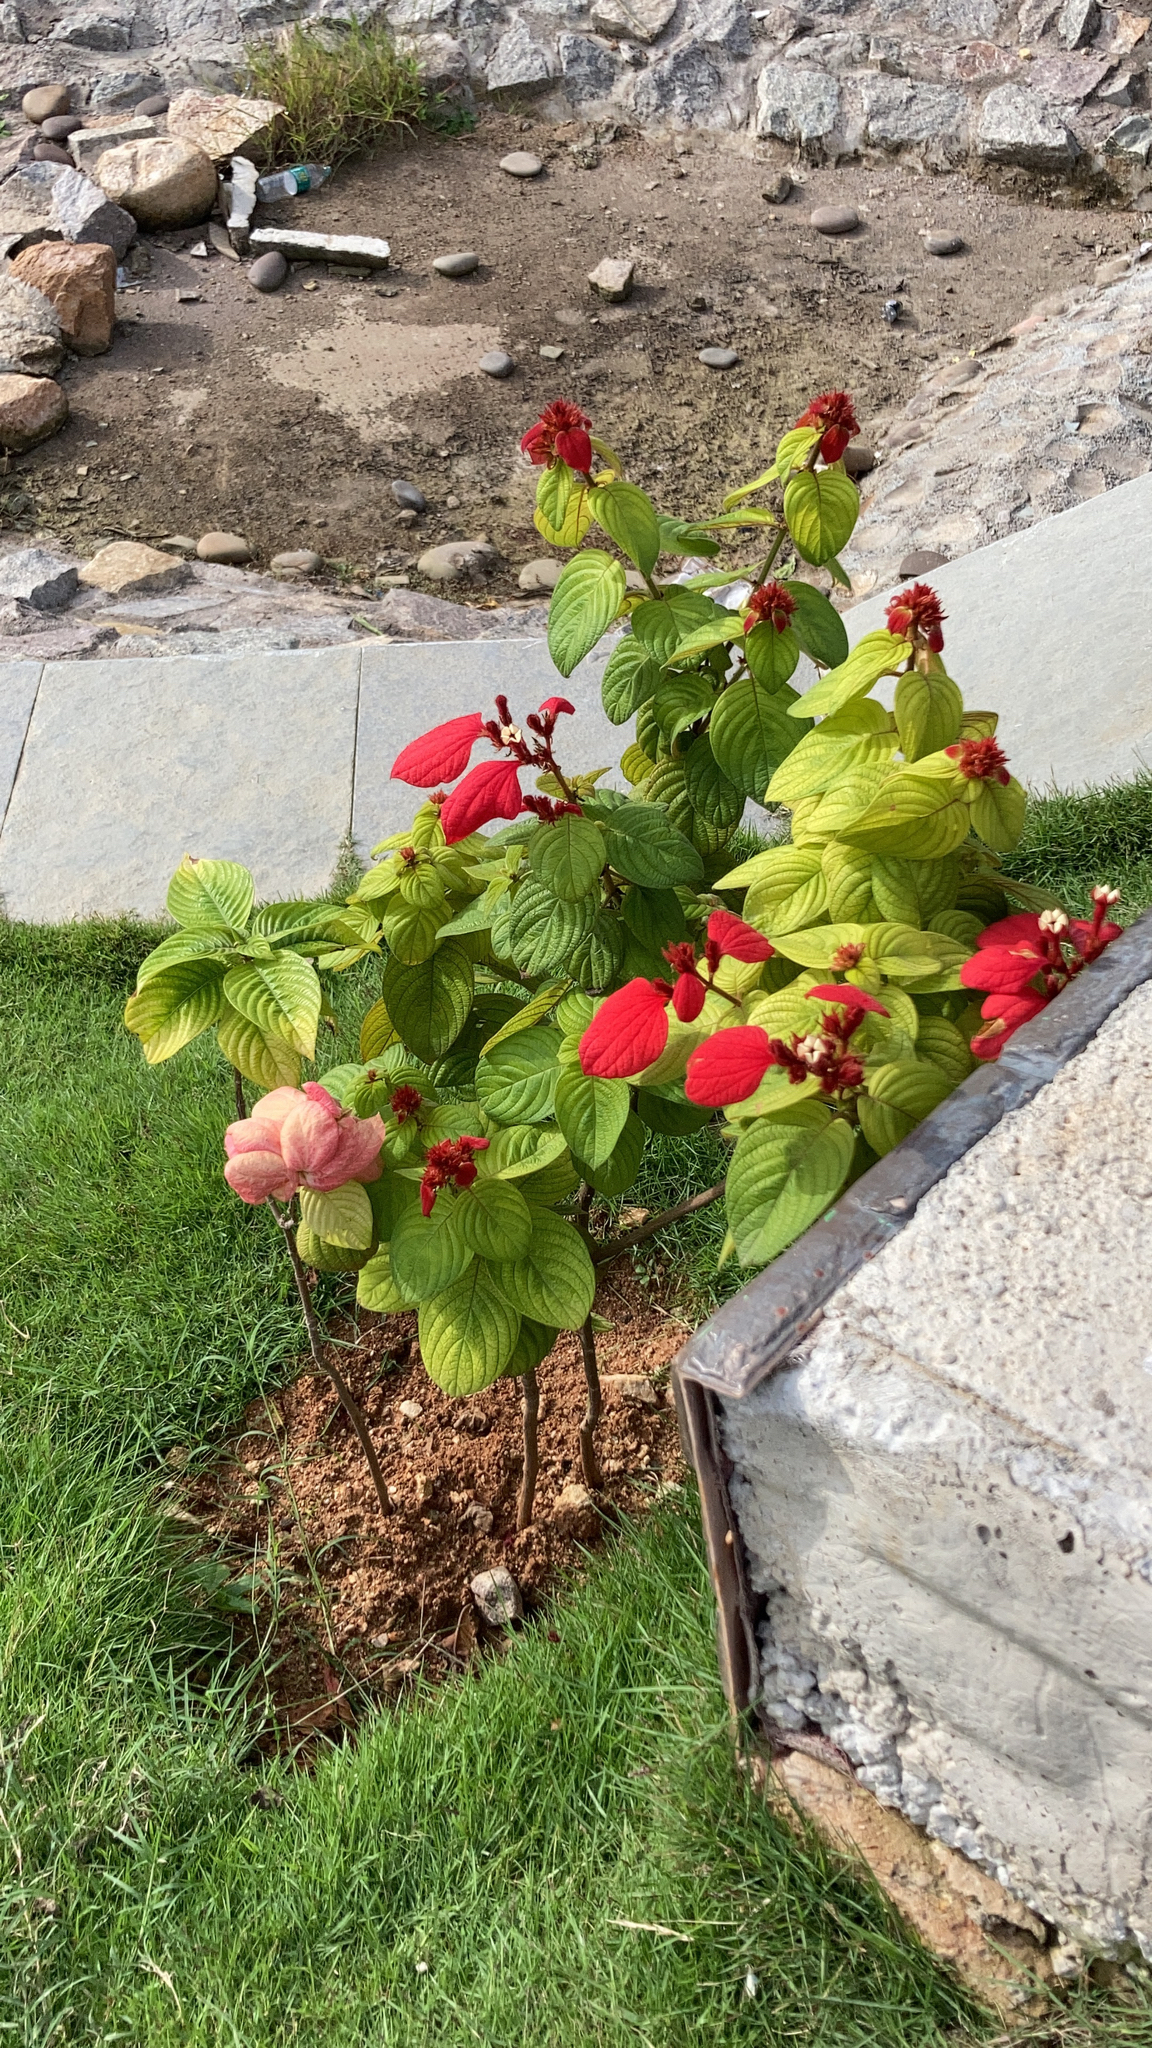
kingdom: Plantae
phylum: Tracheophyta
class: Magnoliopsida
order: Gentianales
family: Rubiaceae
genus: Mussaenda
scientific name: Mussaenda erythrophylla
